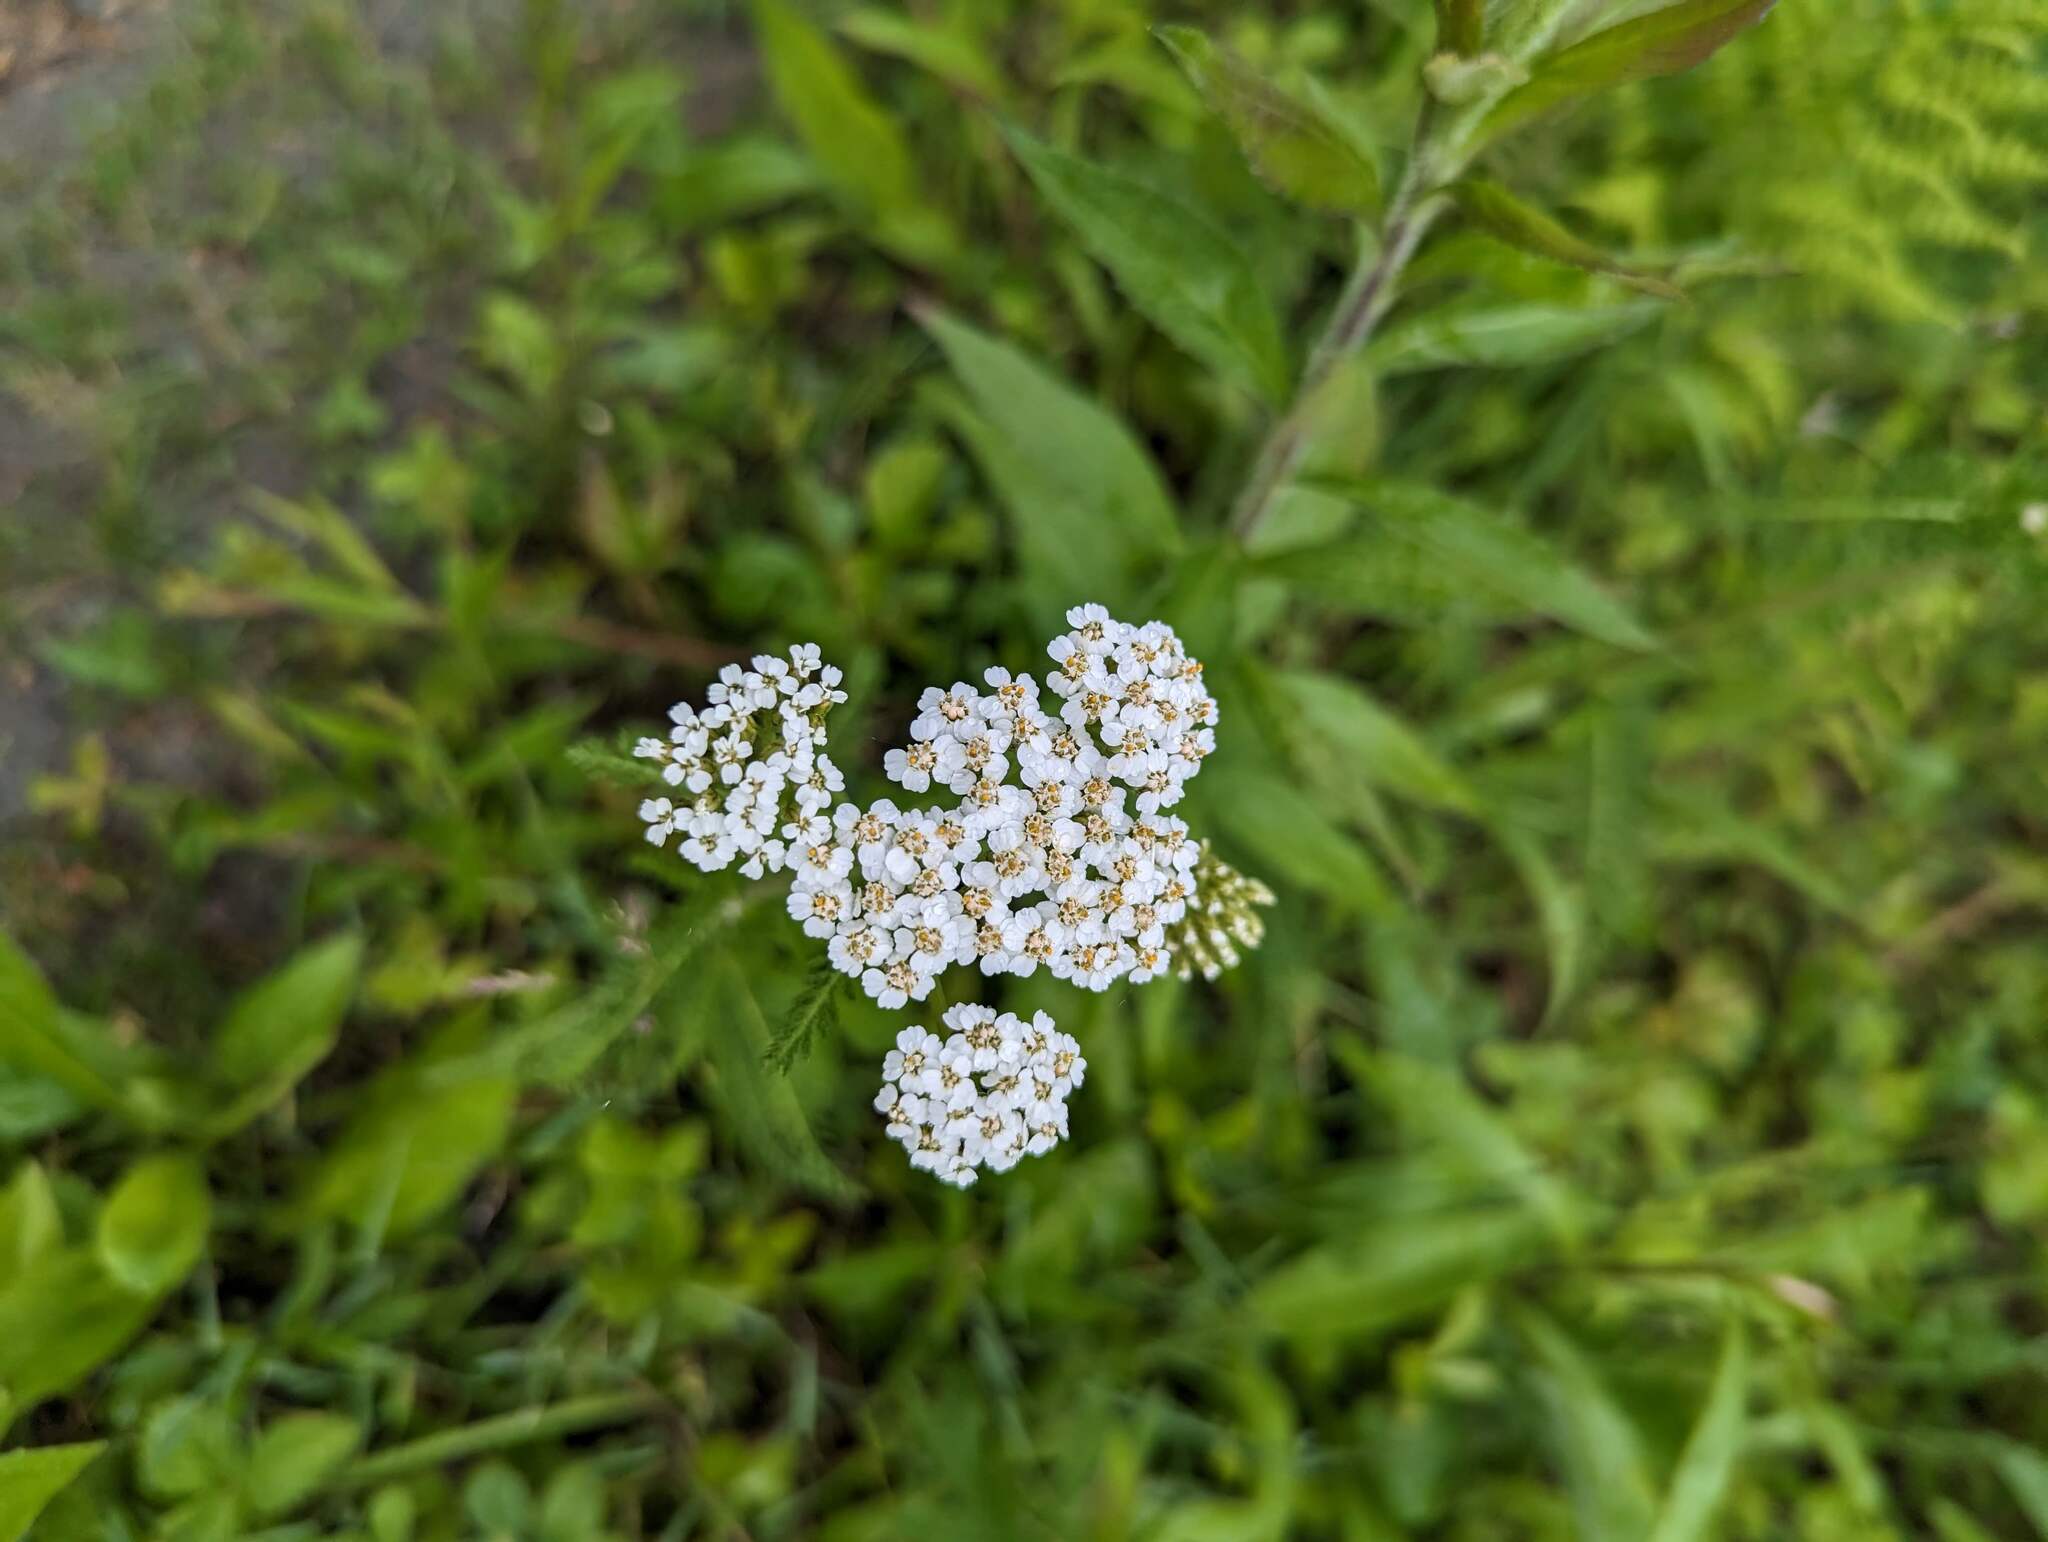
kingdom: Plantae
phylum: Tracheophyta
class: Magnoliopsida
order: Asterales
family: Asteraceae
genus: Achillea
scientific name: Achillea millefolium
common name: Yarrow
